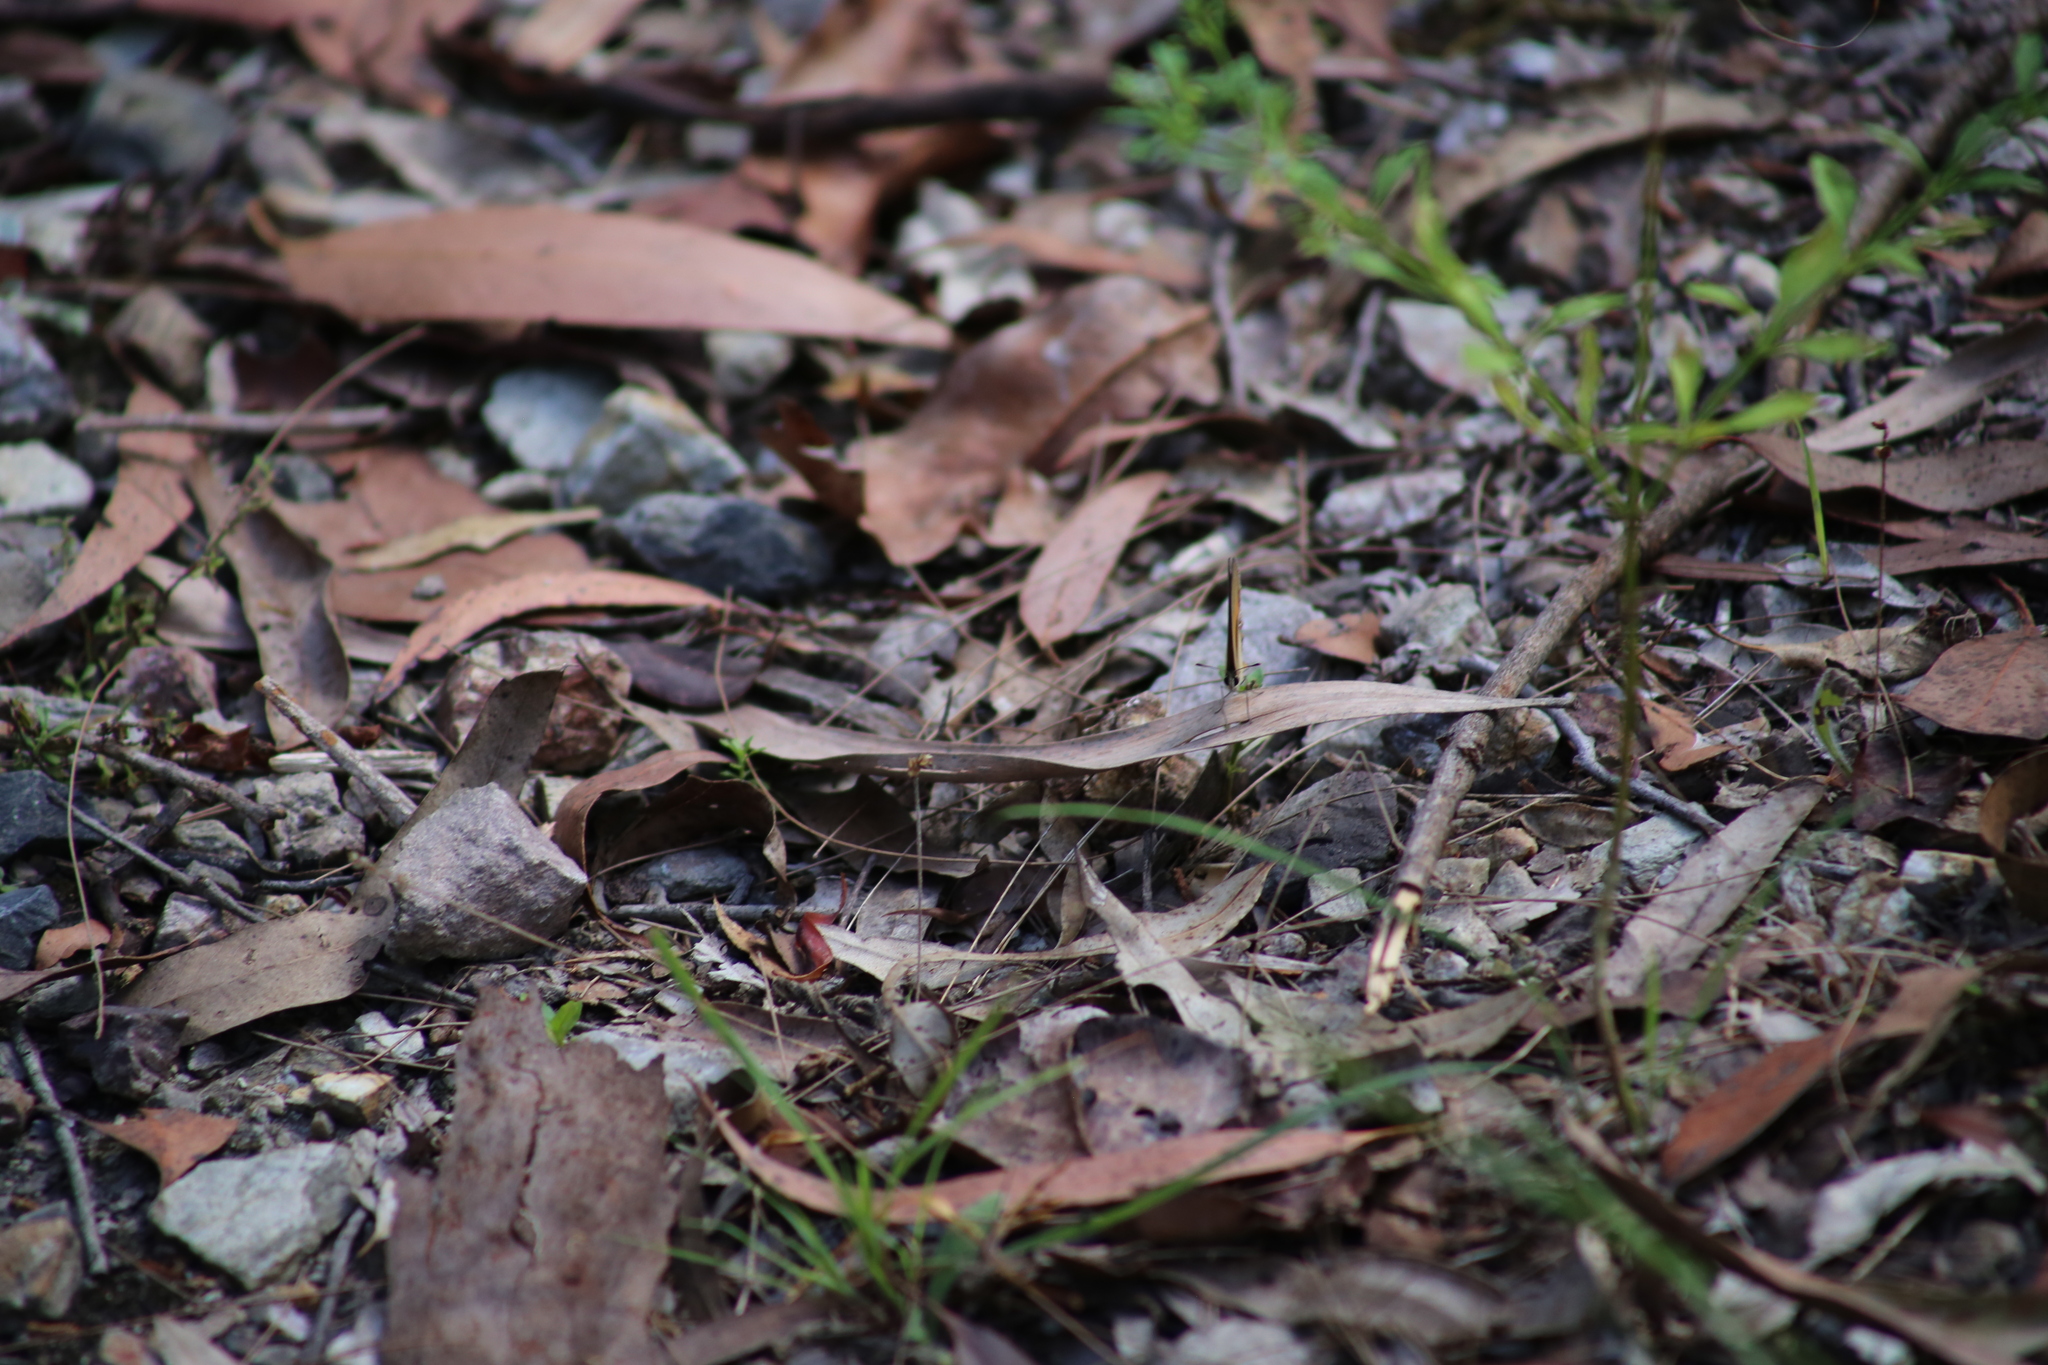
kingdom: Animalia
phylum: Arthropoda
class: Insecta
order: Lepidoptera
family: Nymphalidae
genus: Hypocysta
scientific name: Hypocysta adiante
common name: Orange ringlet
